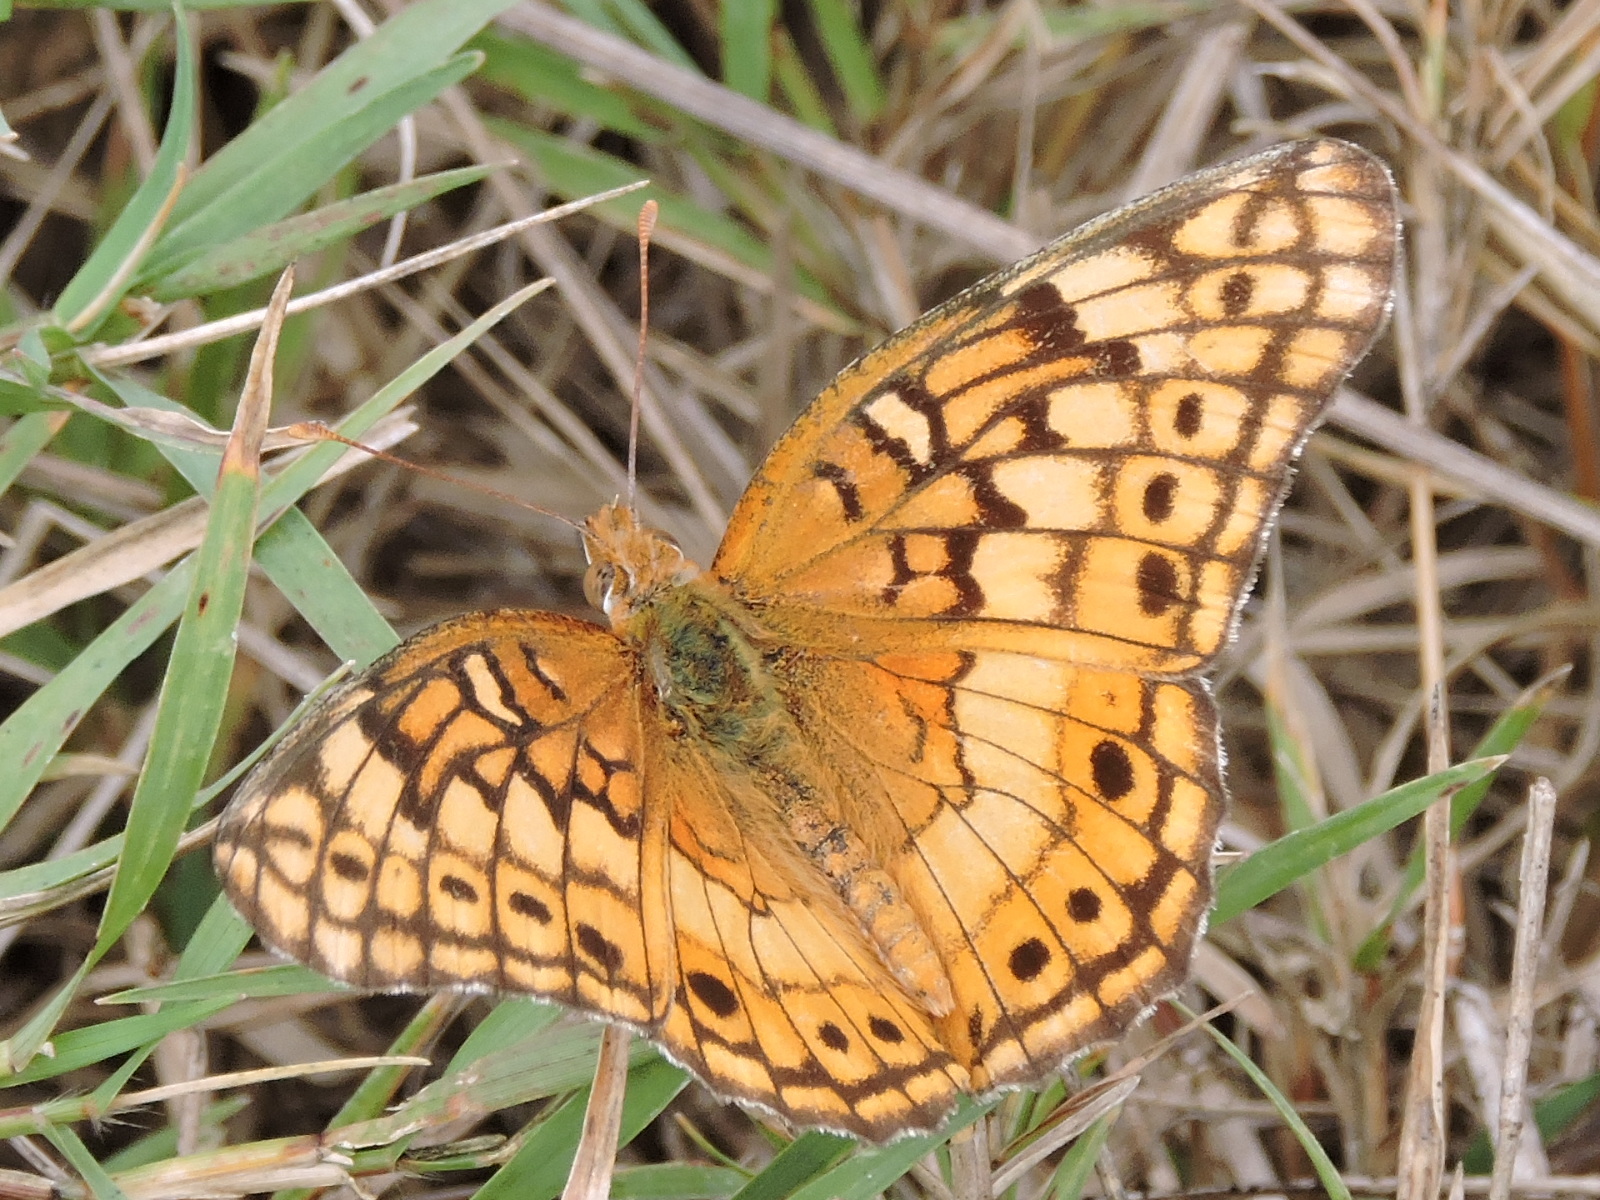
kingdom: Animalia
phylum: Arthropoda
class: Insecta
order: Lepidoptera
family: Nymphalidae
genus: Euptoieta
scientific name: Euptoieta claudia
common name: Variegated fritillary
